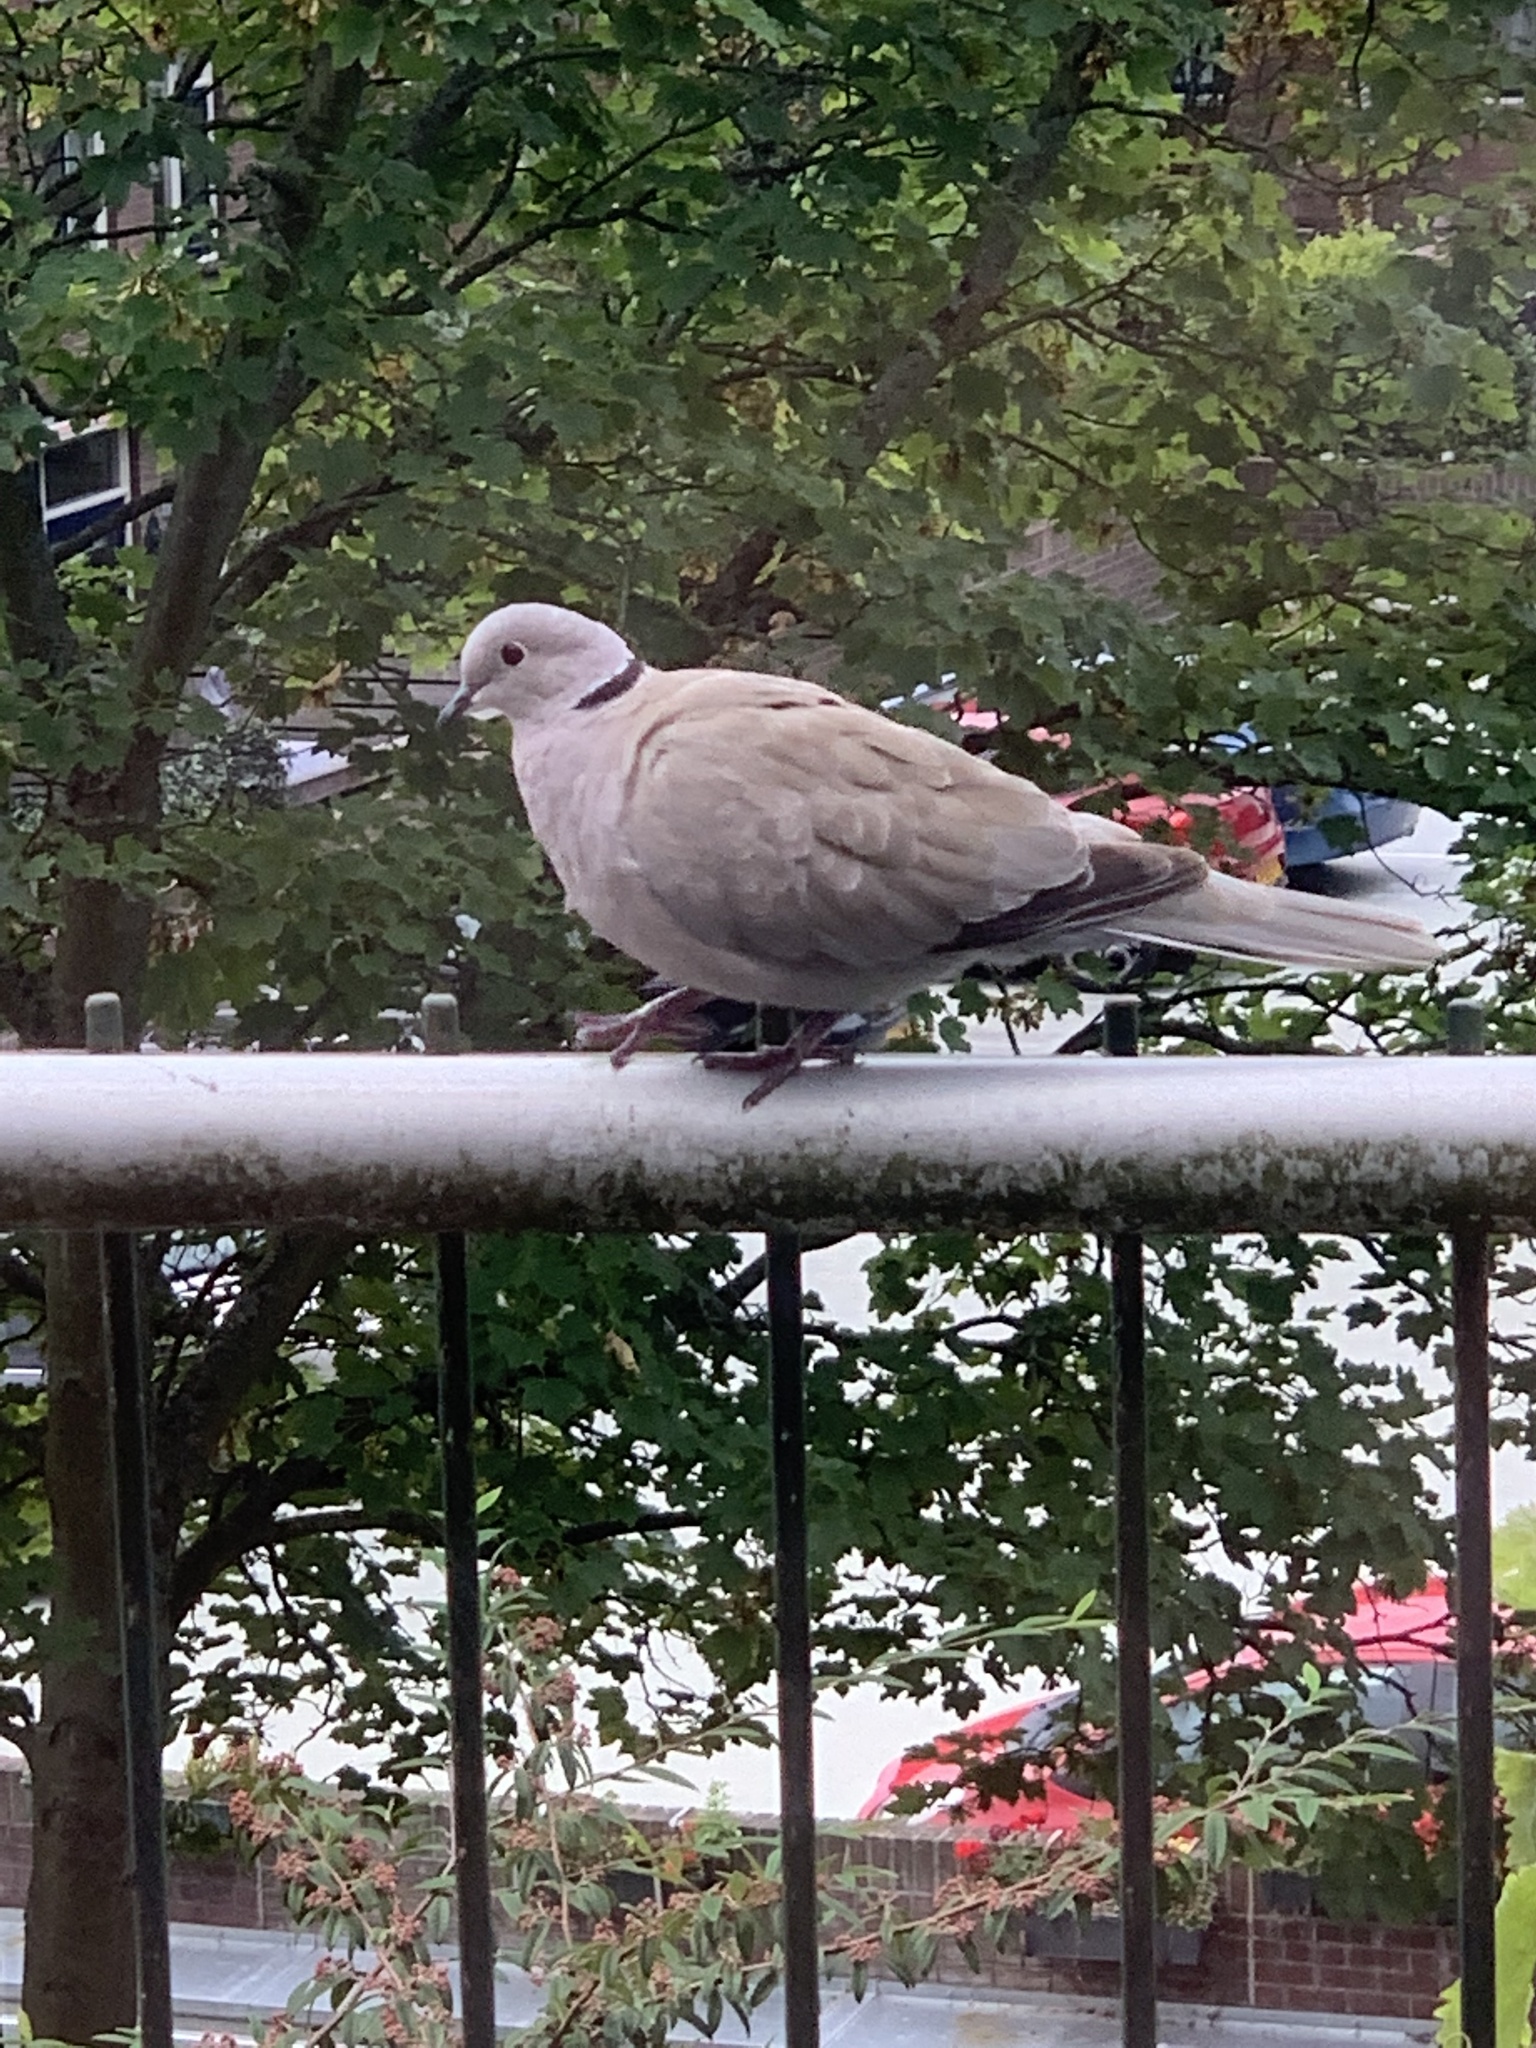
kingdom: Animalia
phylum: Chordata
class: Aves
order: Columbiformes
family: Columbidae
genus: Streptopelia
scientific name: Streptopelia decaocto
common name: Eurasian collared dove
